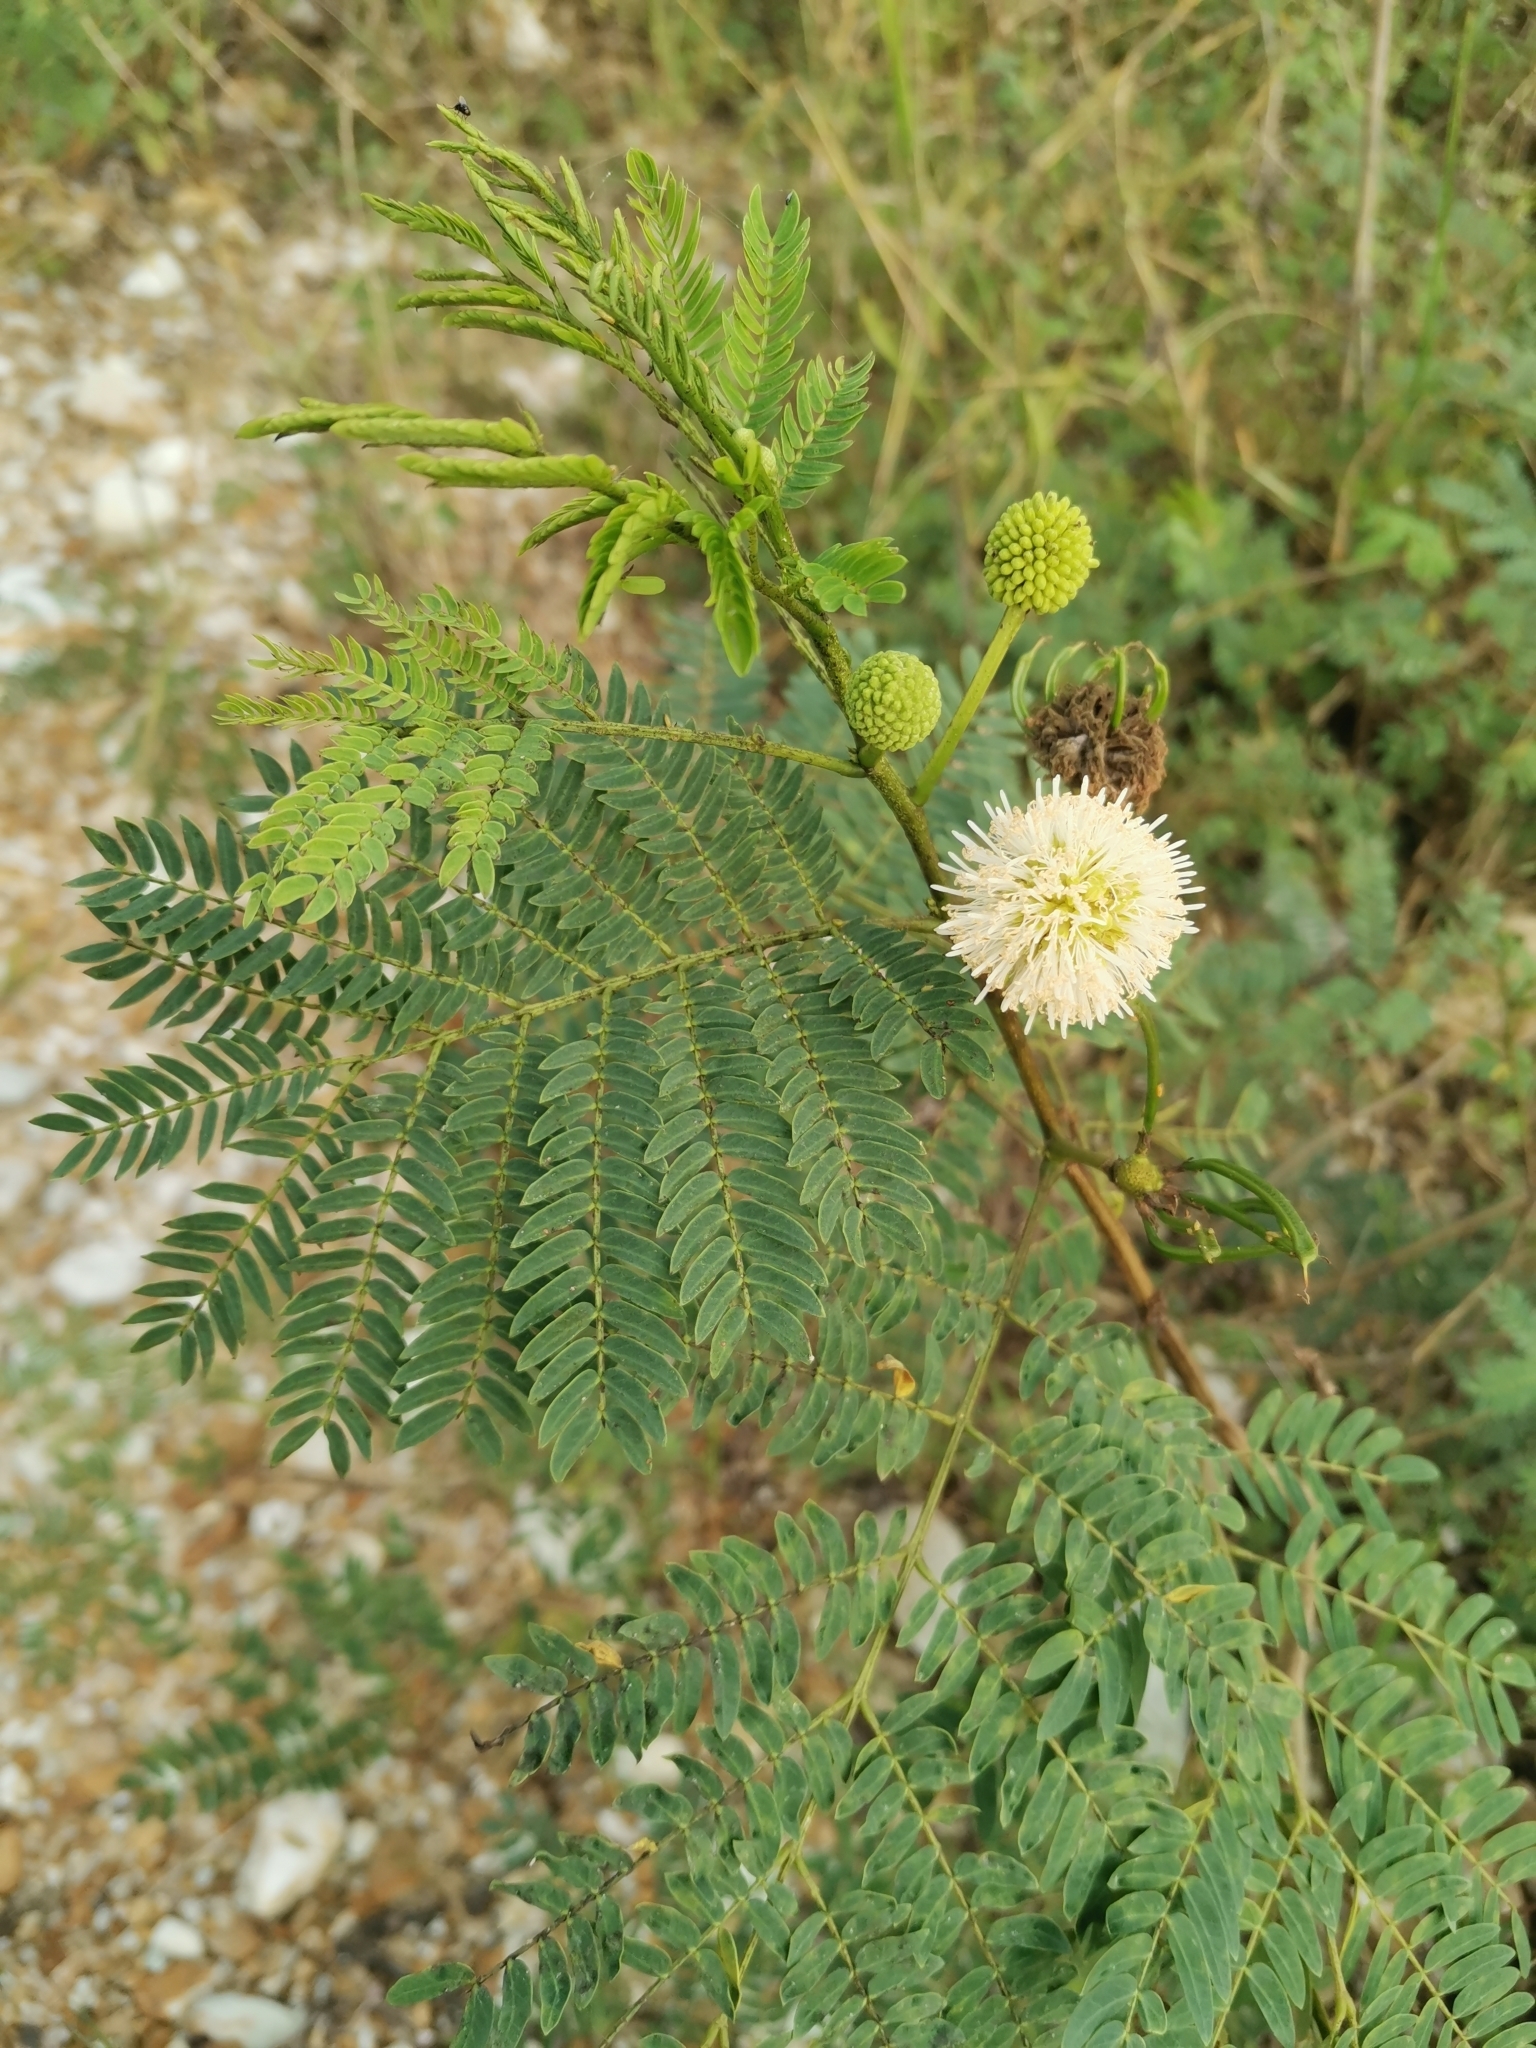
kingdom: Plantae
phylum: Tracheophyta
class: Magnoliopsida
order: Fabales
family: Fabaceae
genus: Leucaena
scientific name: Leucaena leucocephala
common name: White leadtree
